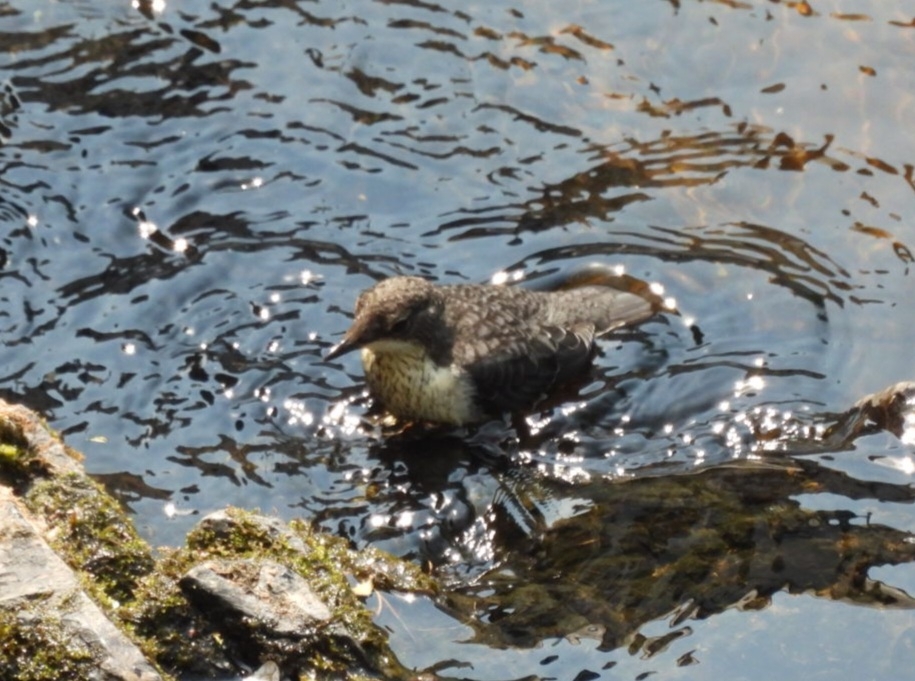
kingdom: Animalia
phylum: Chordata
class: Aves
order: Passeriformes
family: Cinclidae
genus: Cinclus
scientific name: Cinclus cinclus
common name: White-throated dipper
